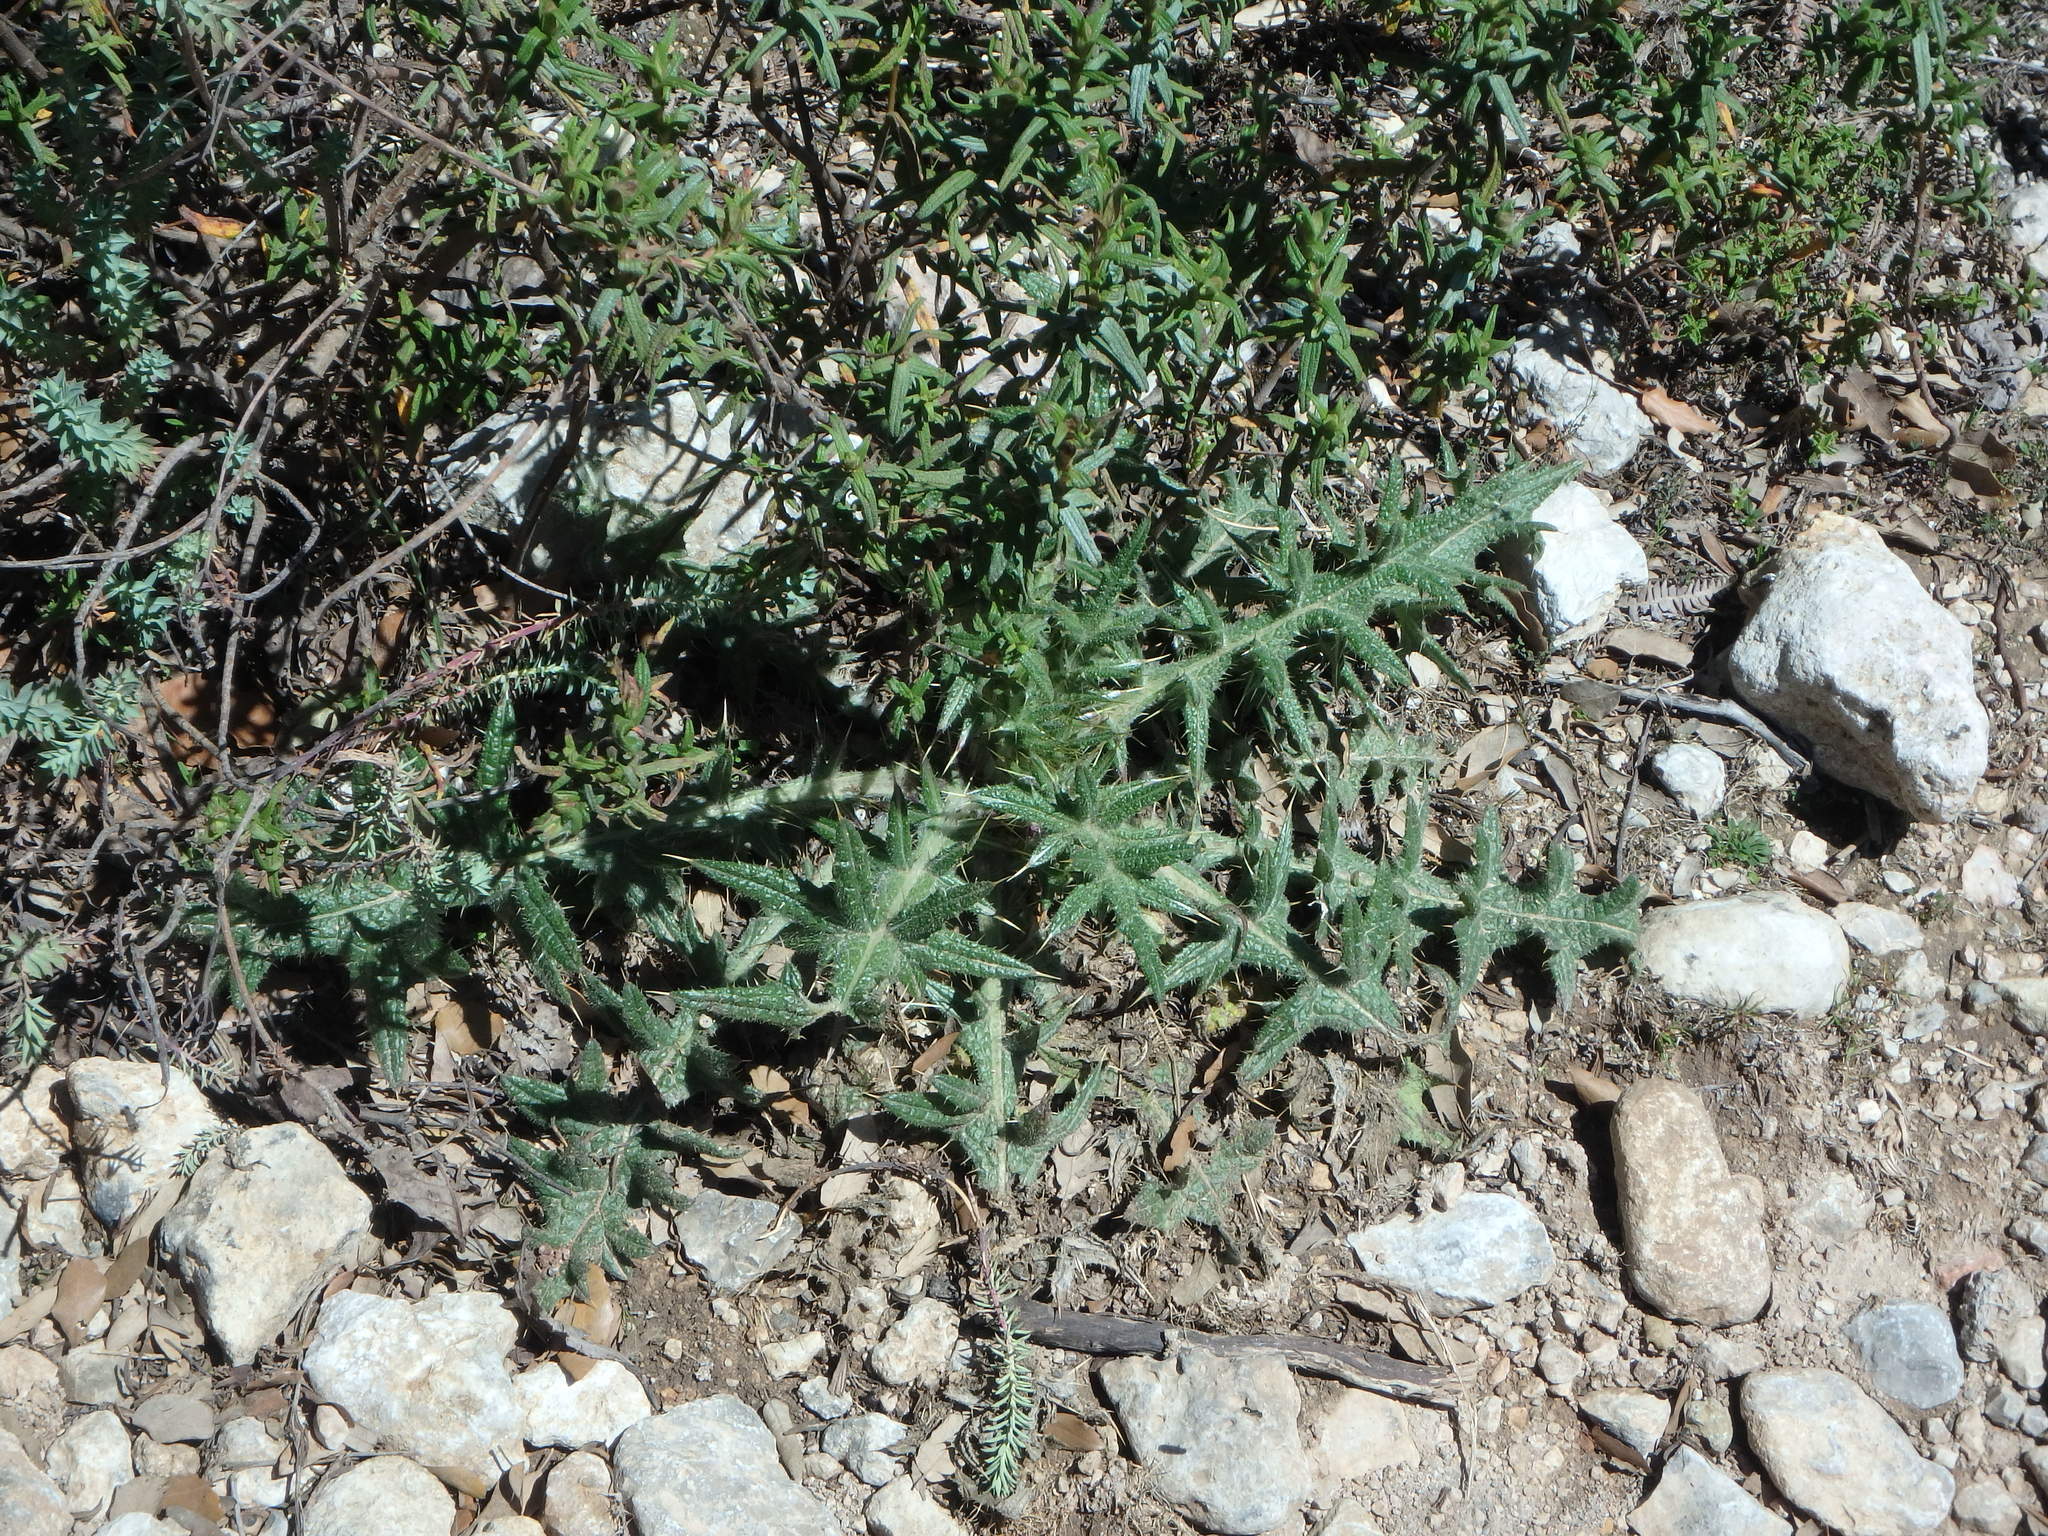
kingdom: Plantae
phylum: Tracheophyta
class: Magnoliopsida
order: Asterales
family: Asteraceae
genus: Cirsium
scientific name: Cirsium vulgare
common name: Bull thistle
